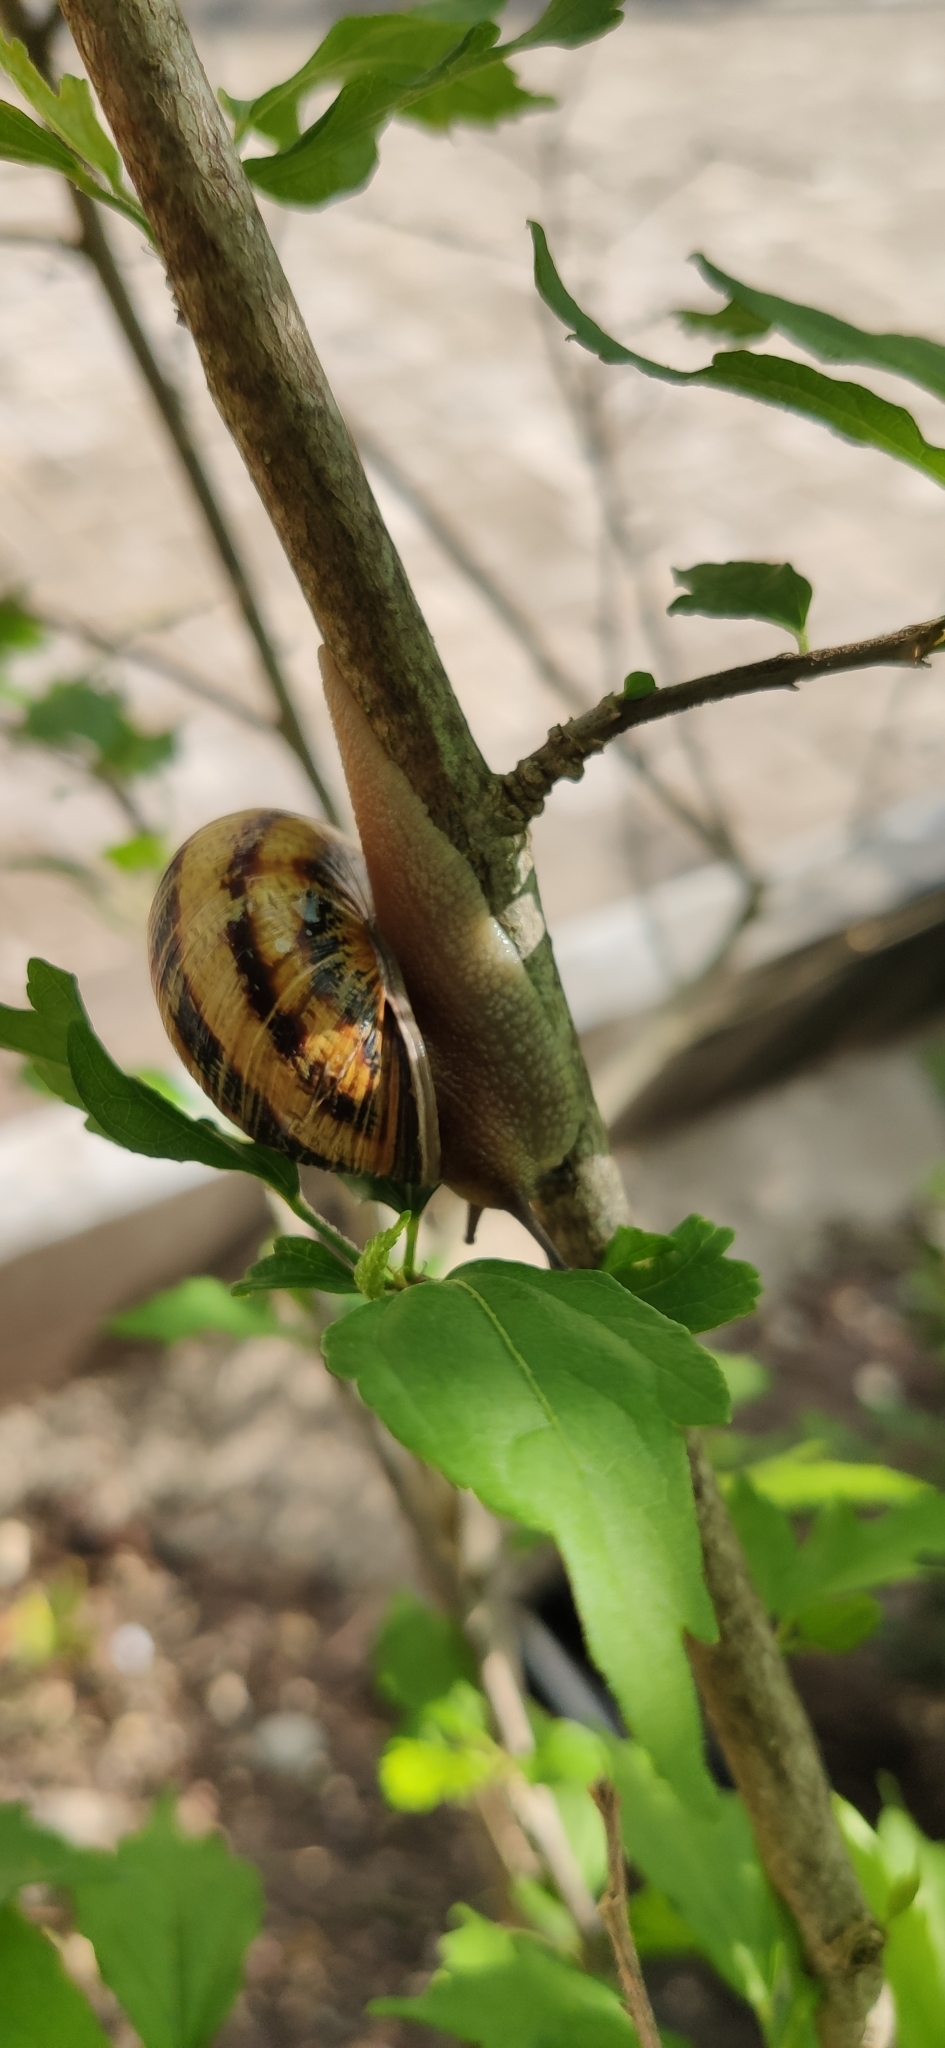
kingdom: Animalia
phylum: Mollusca
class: Gastropoda
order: Stylommatophora
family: Helicidae
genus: Caucasotachea
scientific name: Caucasotachea atrolabiata
